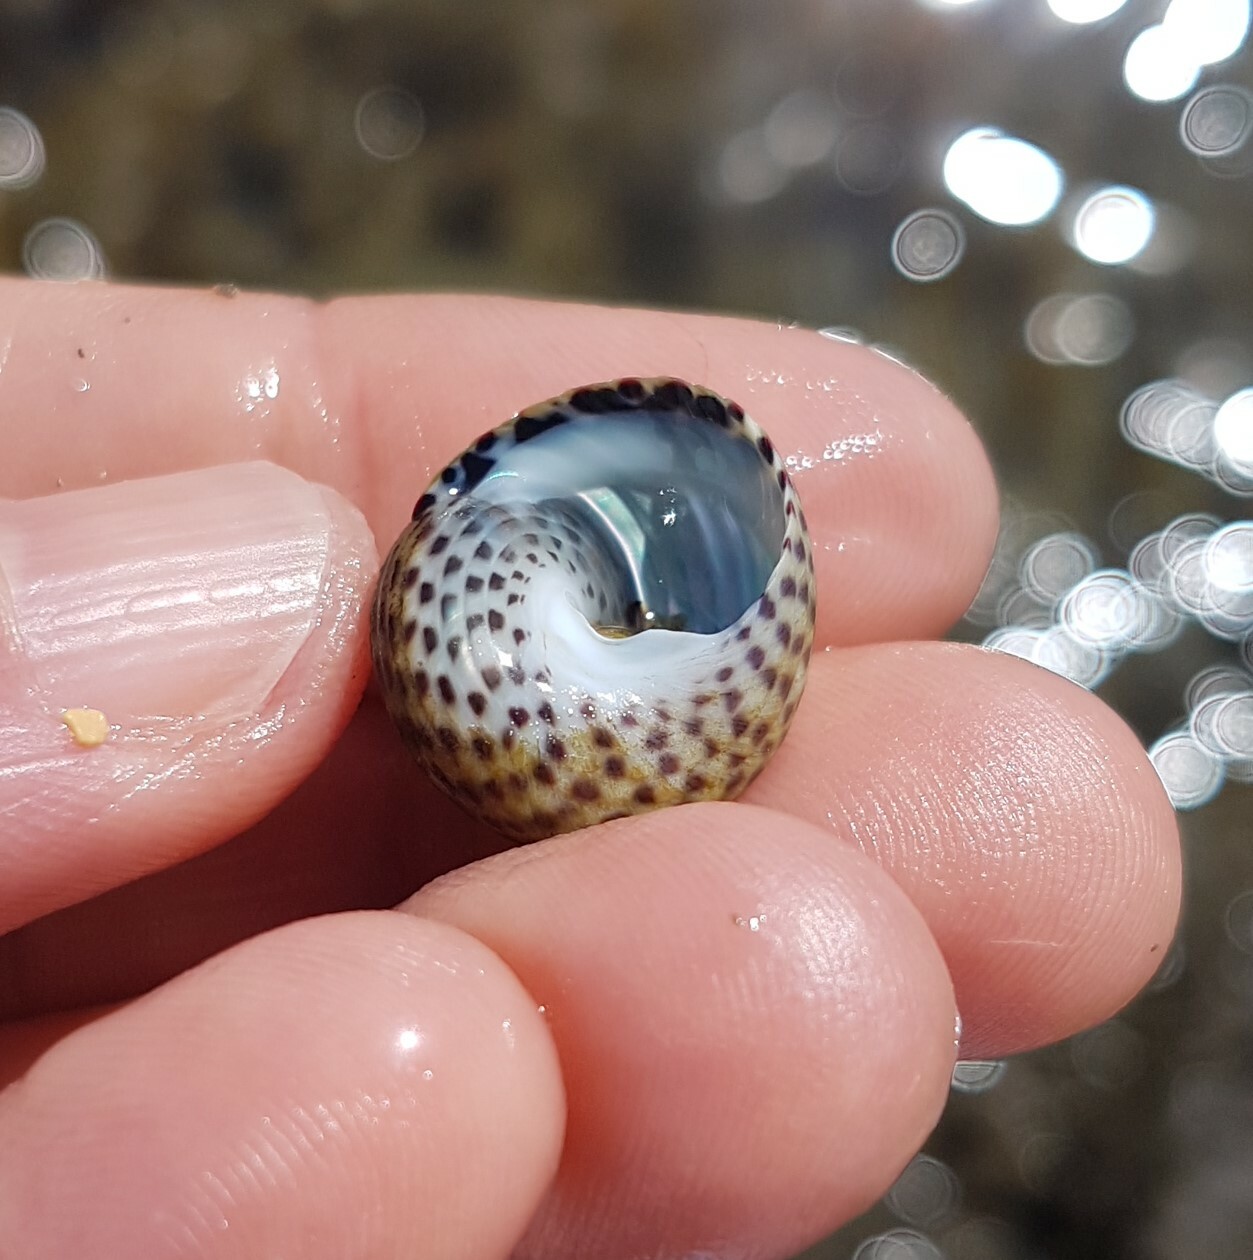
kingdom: Animalia
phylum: Mollusca
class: Gastropoda
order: Trochida
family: Trochidae
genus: Phorcus
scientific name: Phorcus turbinatus
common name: Turbinate monodont
